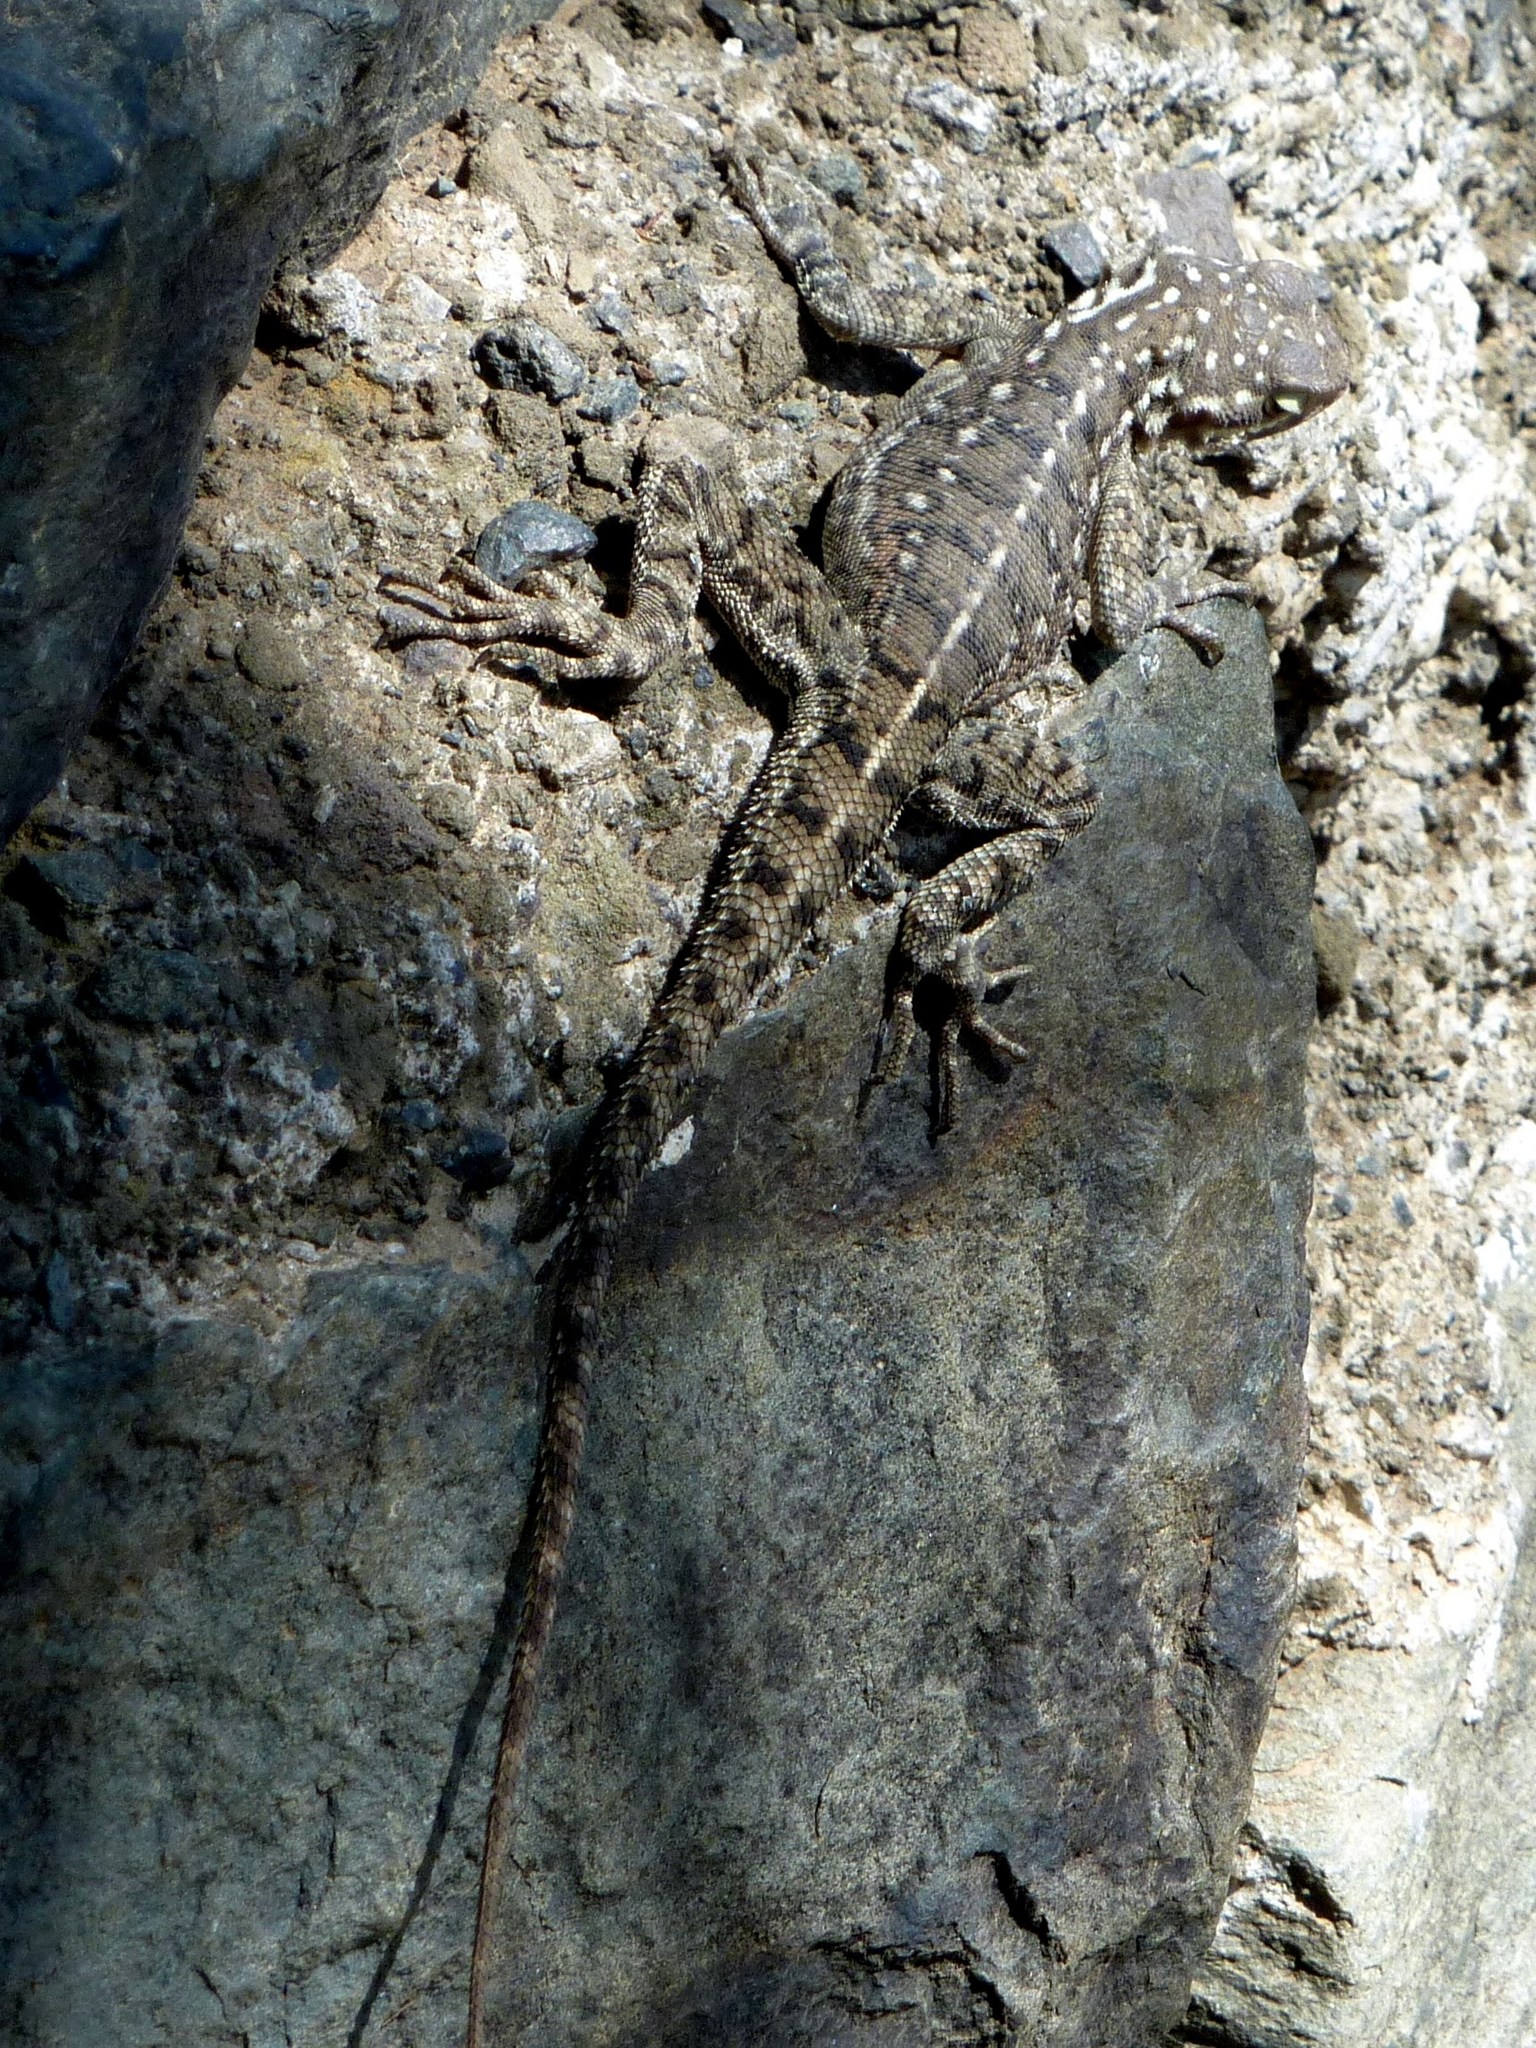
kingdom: Animalia
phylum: Chordata
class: Squamata
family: Agamidae
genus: Agama
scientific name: Agama lionotus
